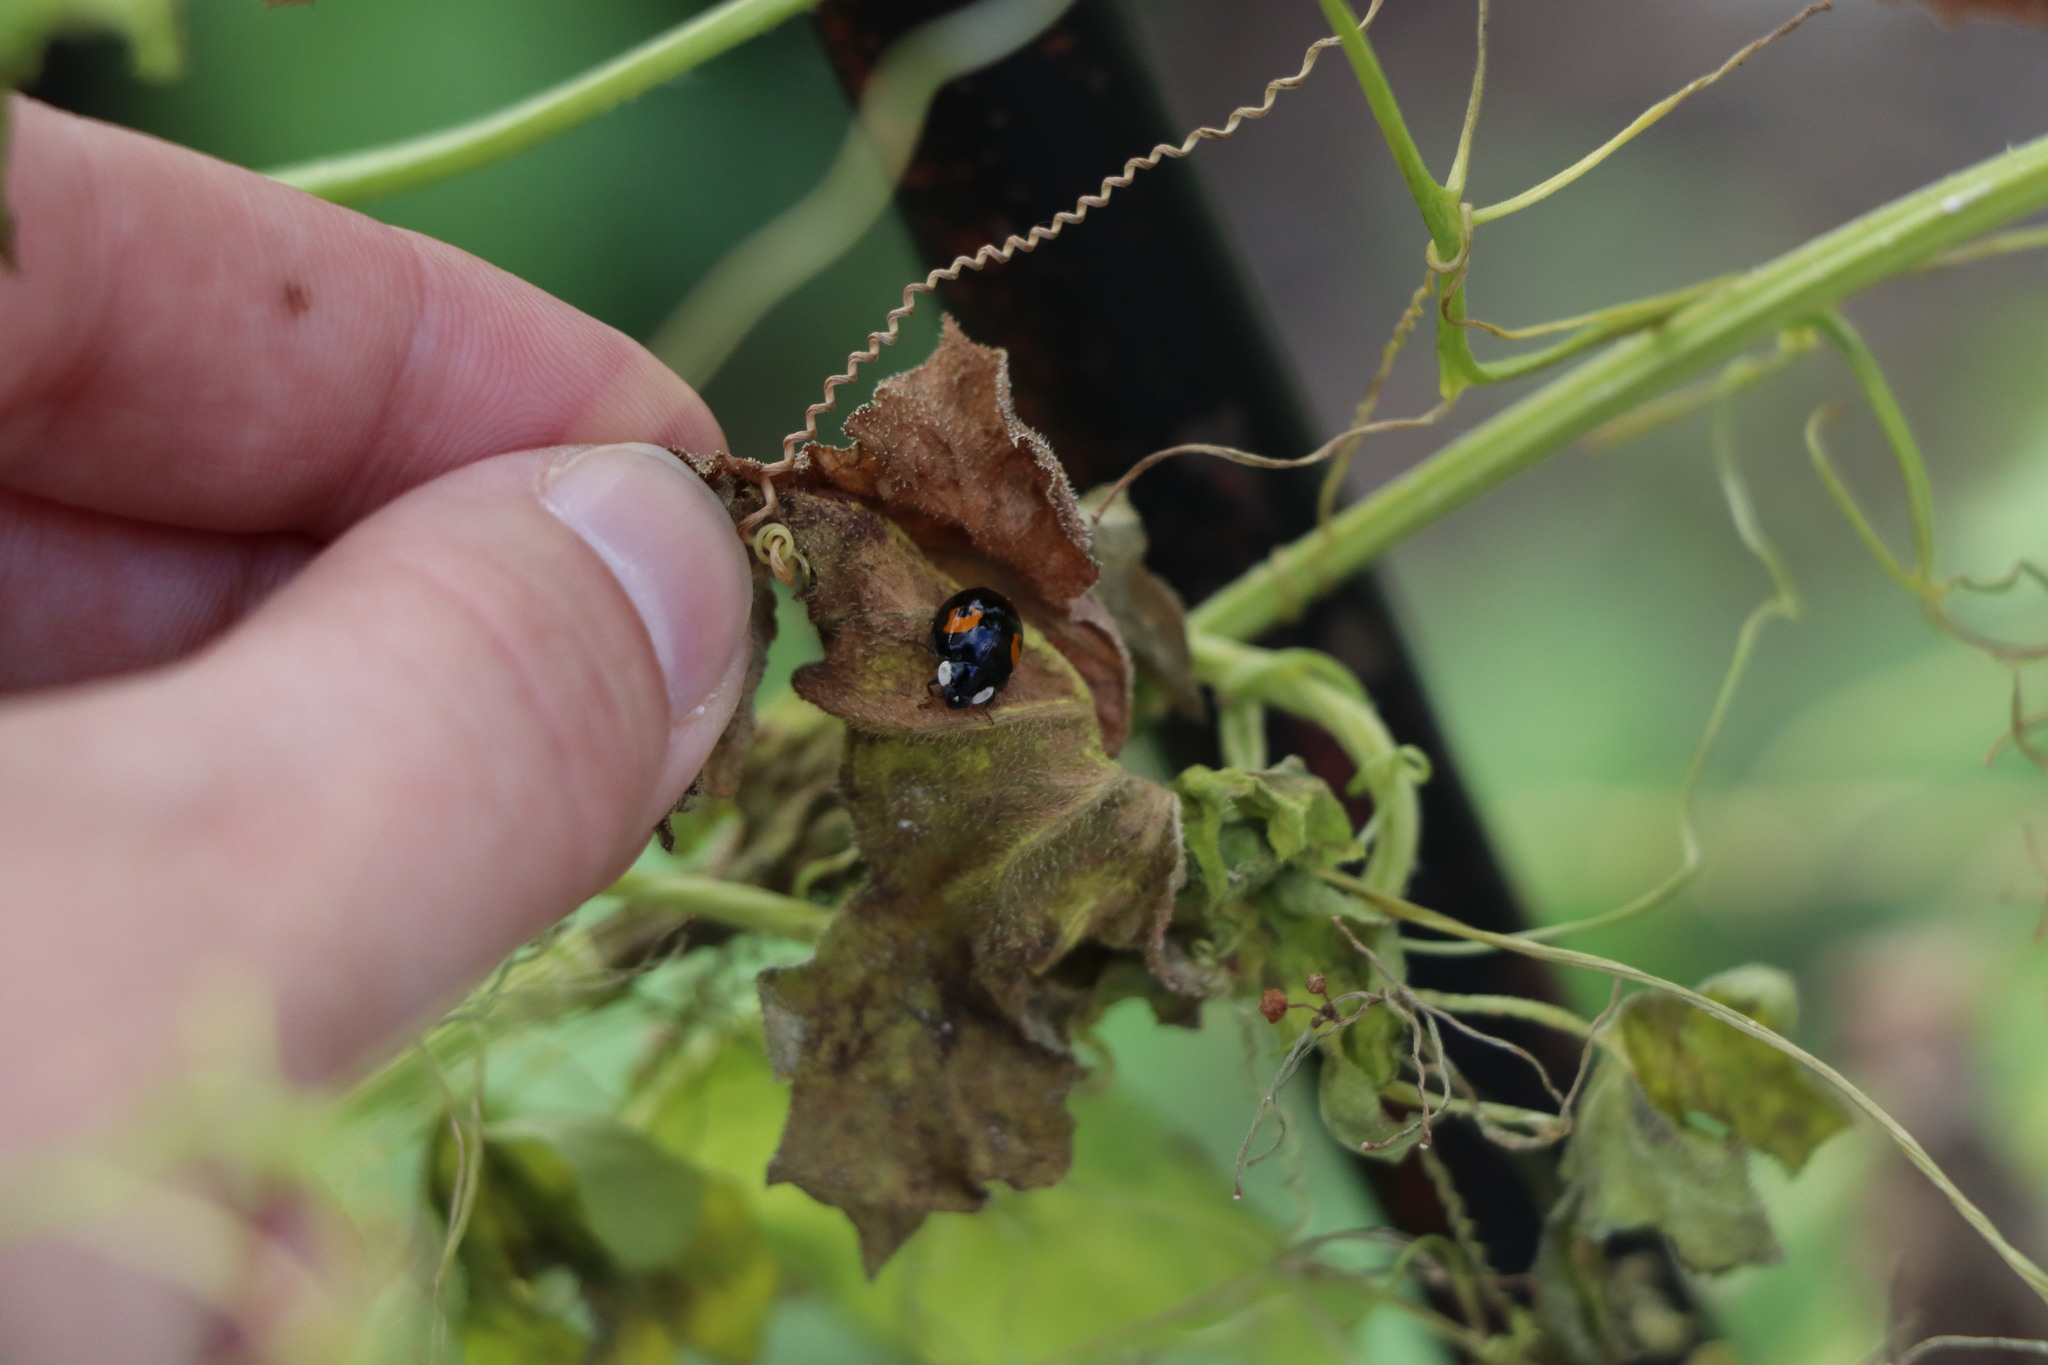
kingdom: Animalia
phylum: Arthropoda
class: Insecta
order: Coleoptera
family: Coccinellidae
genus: Harmonia
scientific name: Harmonia axyridis
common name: Harlequin ladybird
